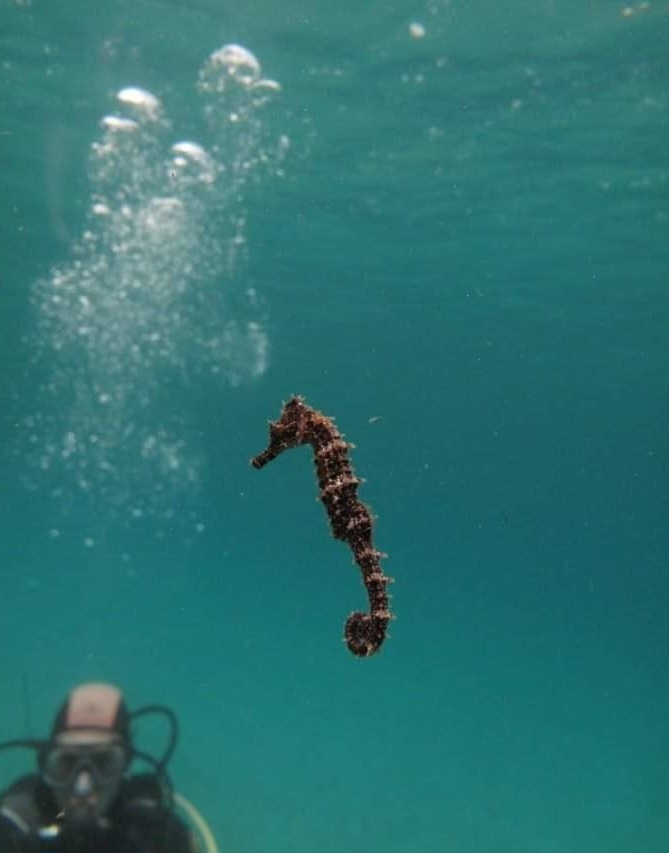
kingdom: Animalia
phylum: Chordata
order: Syngnathiformes
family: Syngnathidae
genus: Hippocampus
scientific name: Hippocampus hippocampus
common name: Short-snouted seahorse
